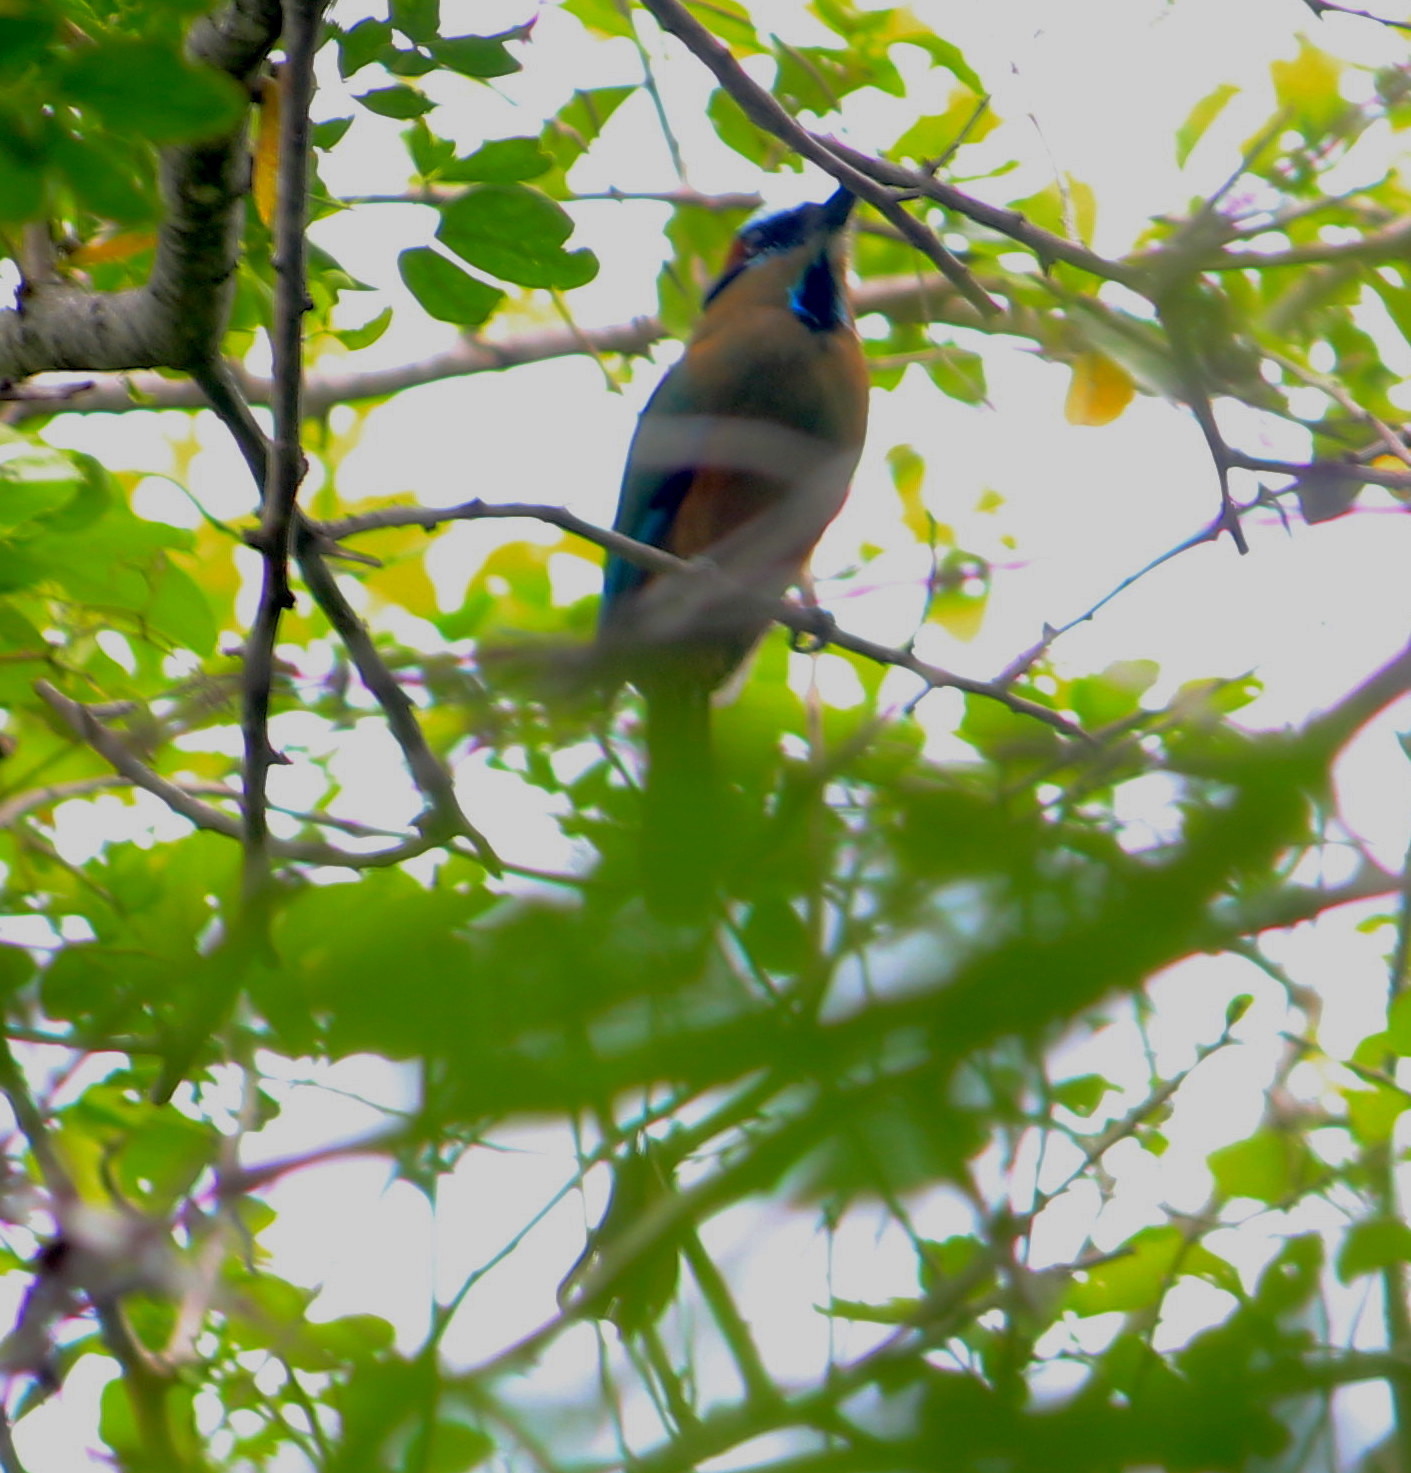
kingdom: Animalia
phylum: Chordata
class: Aves
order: Coraciiformes
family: Momotidae
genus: Eumomota
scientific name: Eumomota superciliosa
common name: Turquoise-browed motmot
